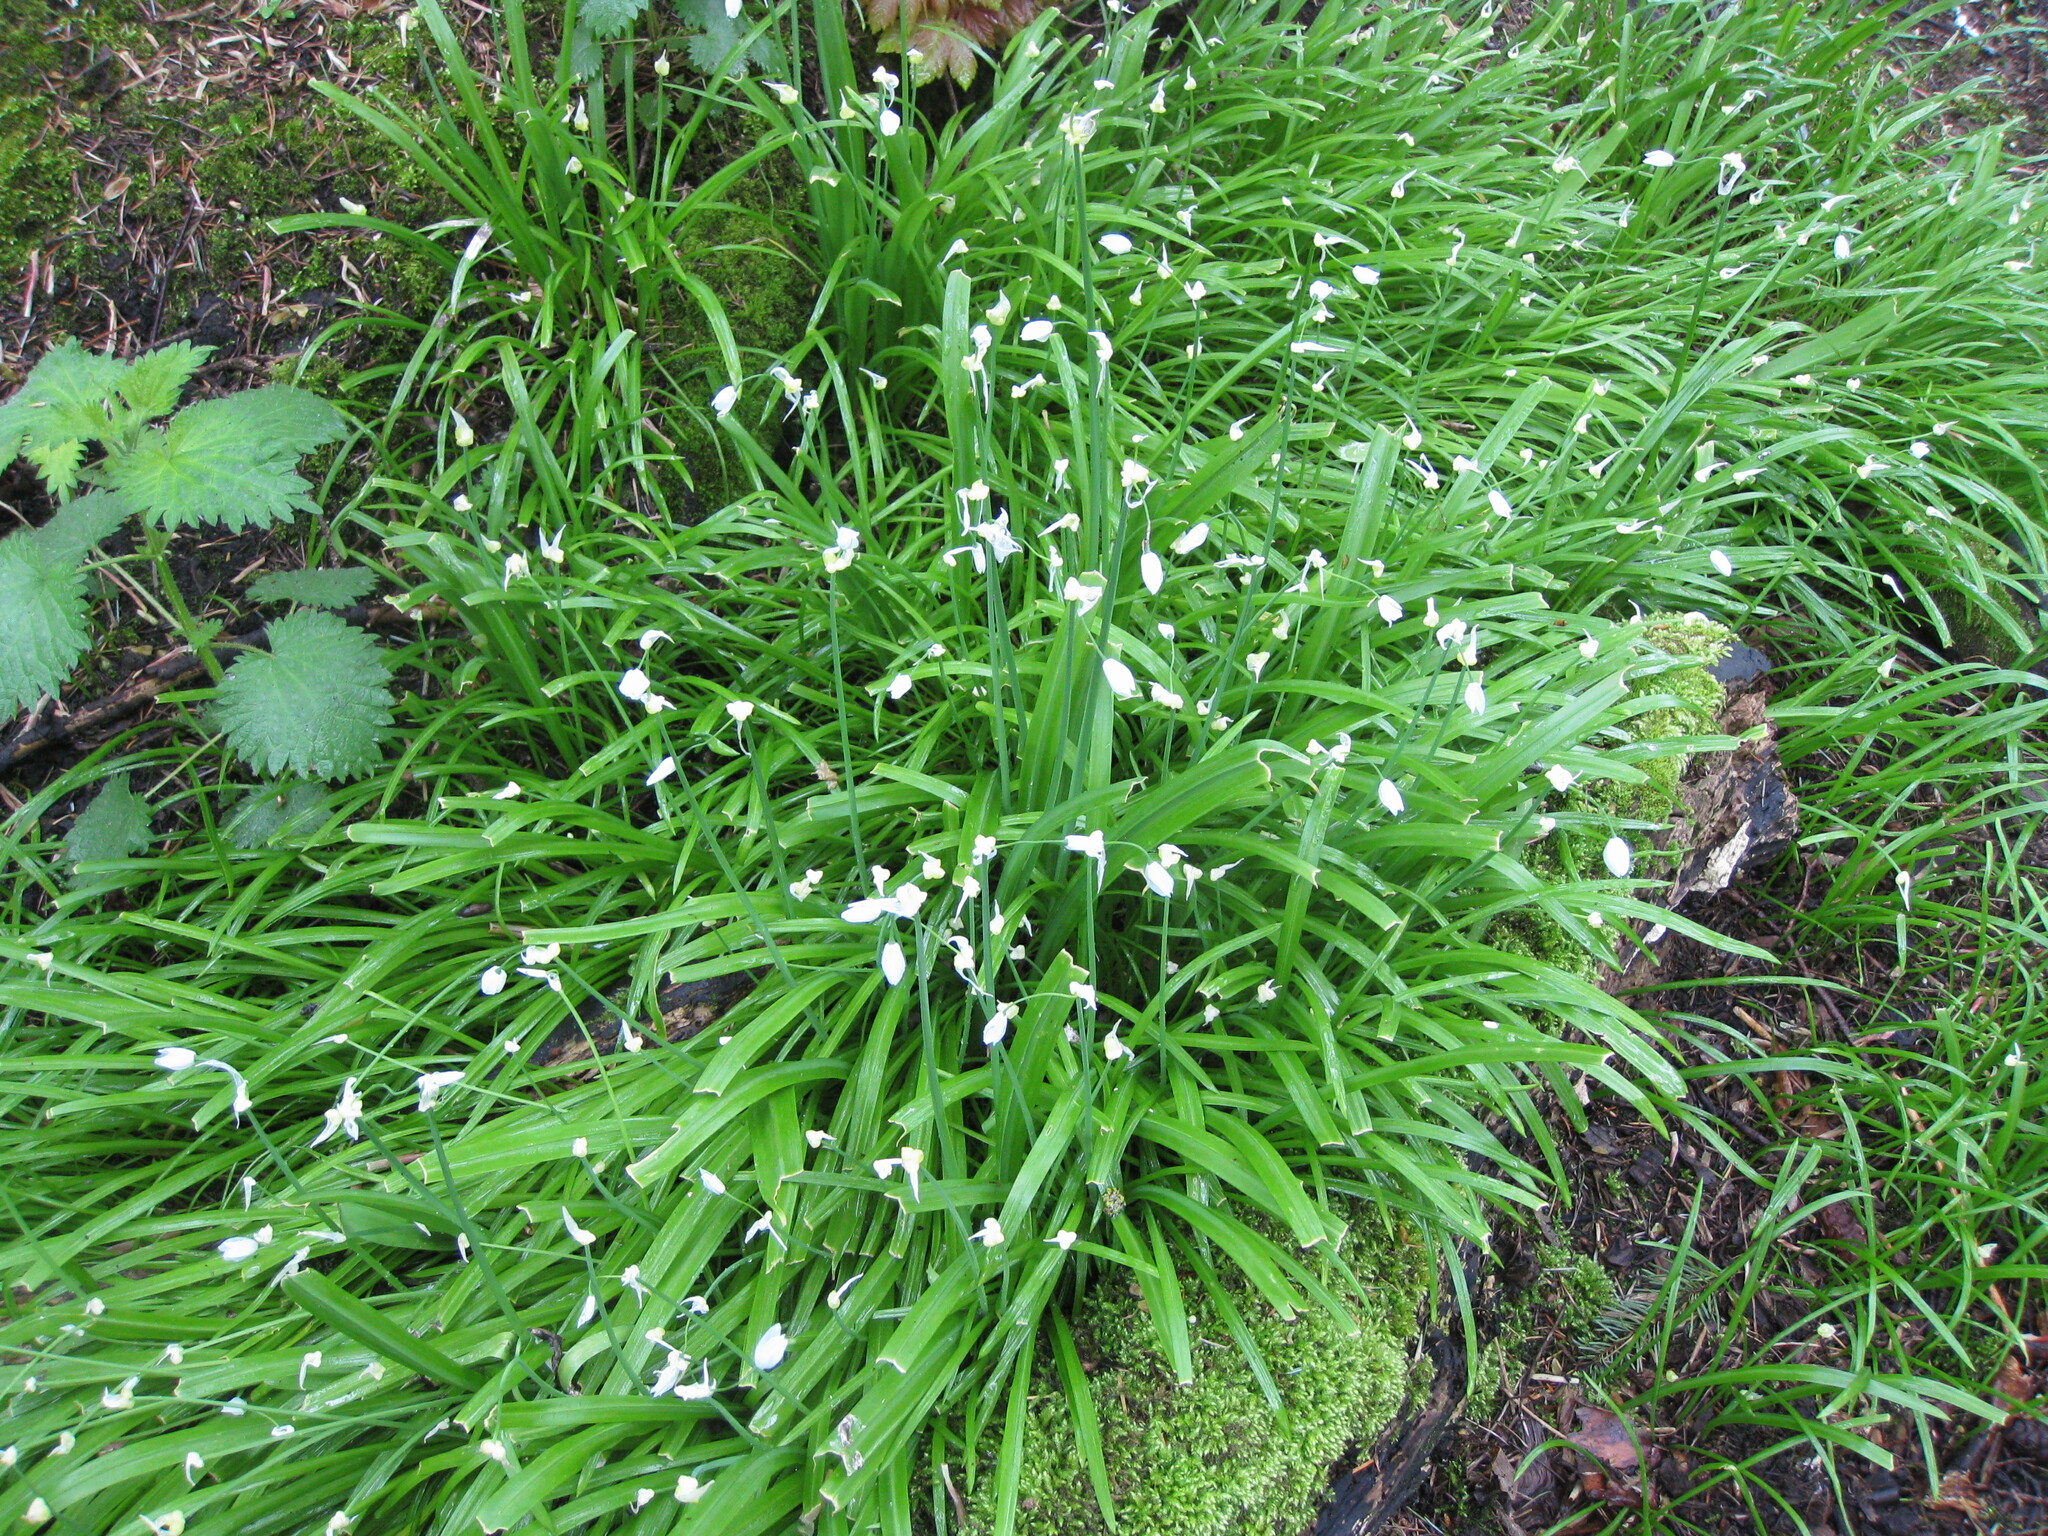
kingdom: Plantae
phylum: Tracheophyta
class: Liliopsida
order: Asparagales
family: Amaryllidaceae
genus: Allium
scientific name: Allium paradoxum
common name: Few-flowered garlic
